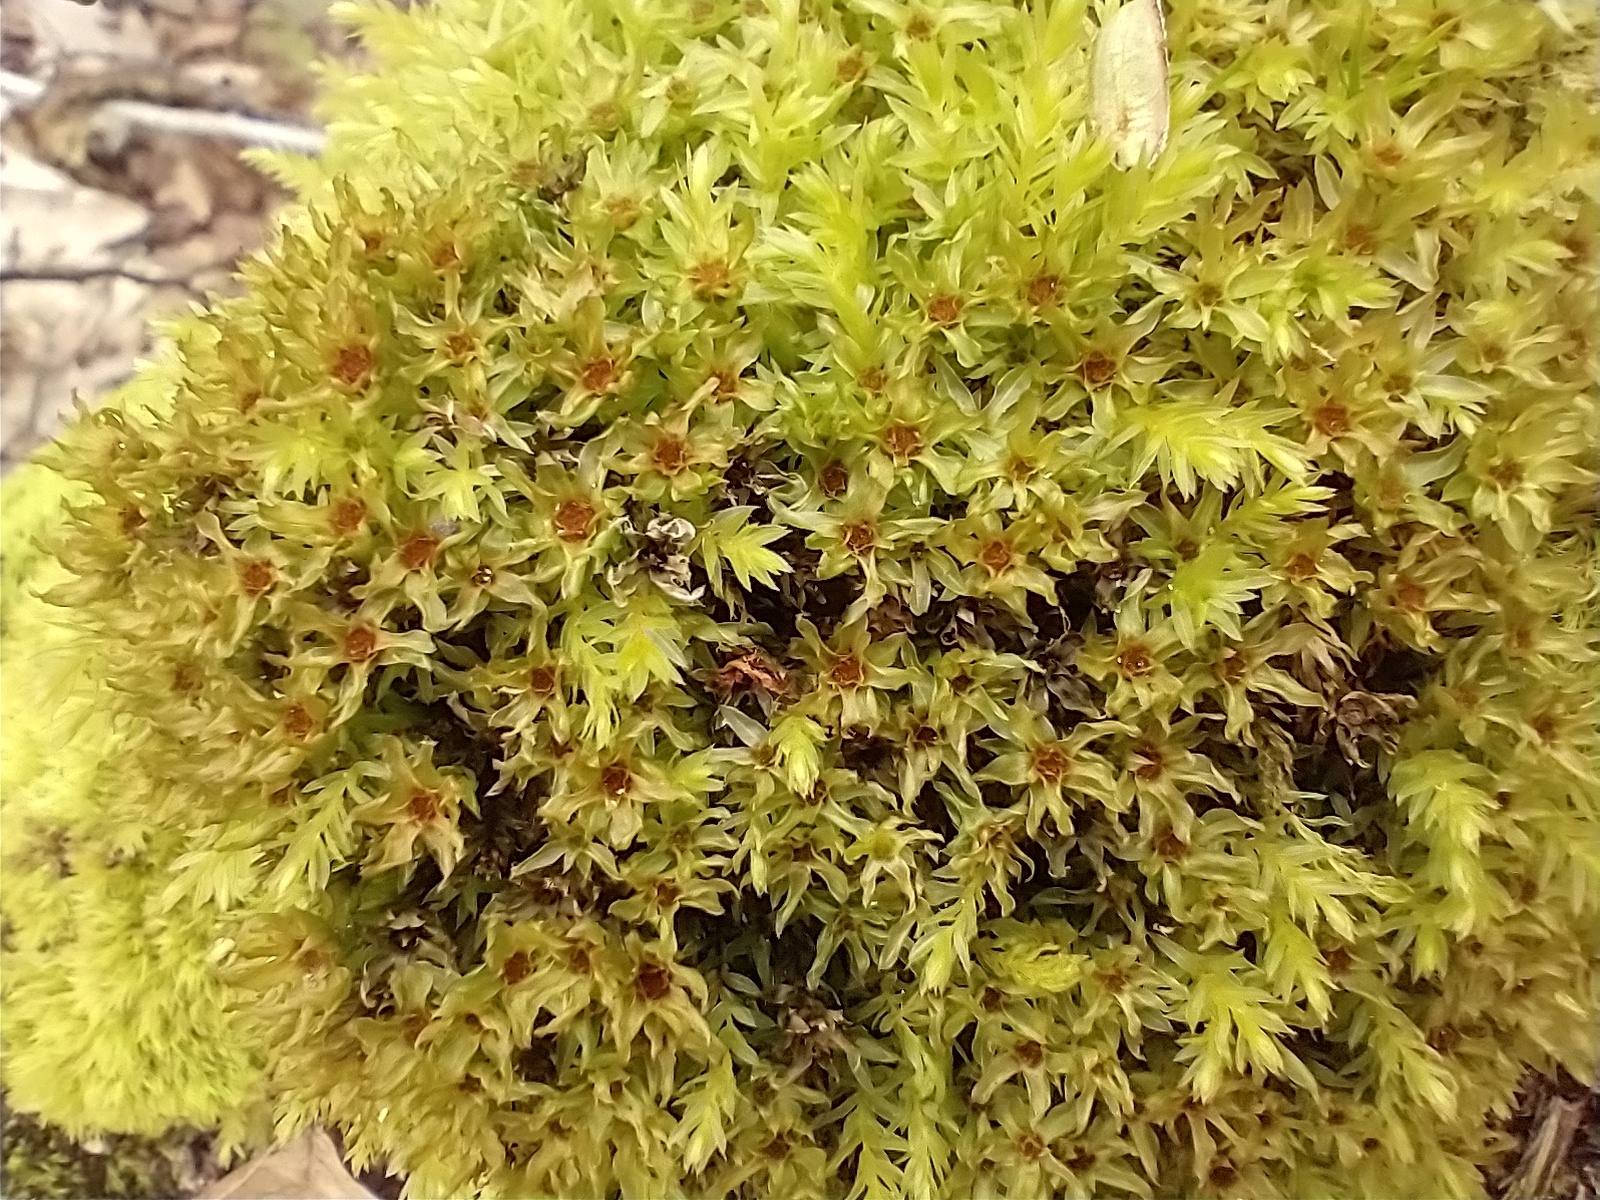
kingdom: Plantae
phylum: Bryophyta
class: Bryopsida
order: Bryales
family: Mniaceae
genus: Mnium
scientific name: Mnium hornum
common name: Swan's-neck leafy moss
